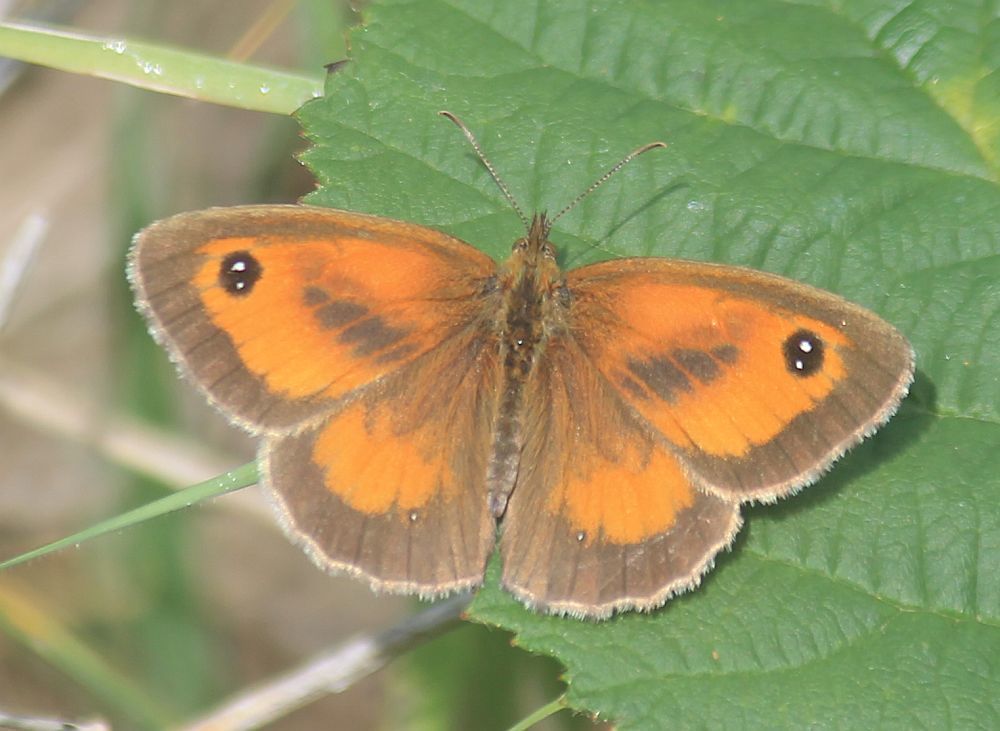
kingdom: Animalia
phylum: Arthropoda
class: Insecta
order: Lepidoptera
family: Nymphalidae
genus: Pyronia
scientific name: Pyronia tithonus
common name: Gatekeeper
